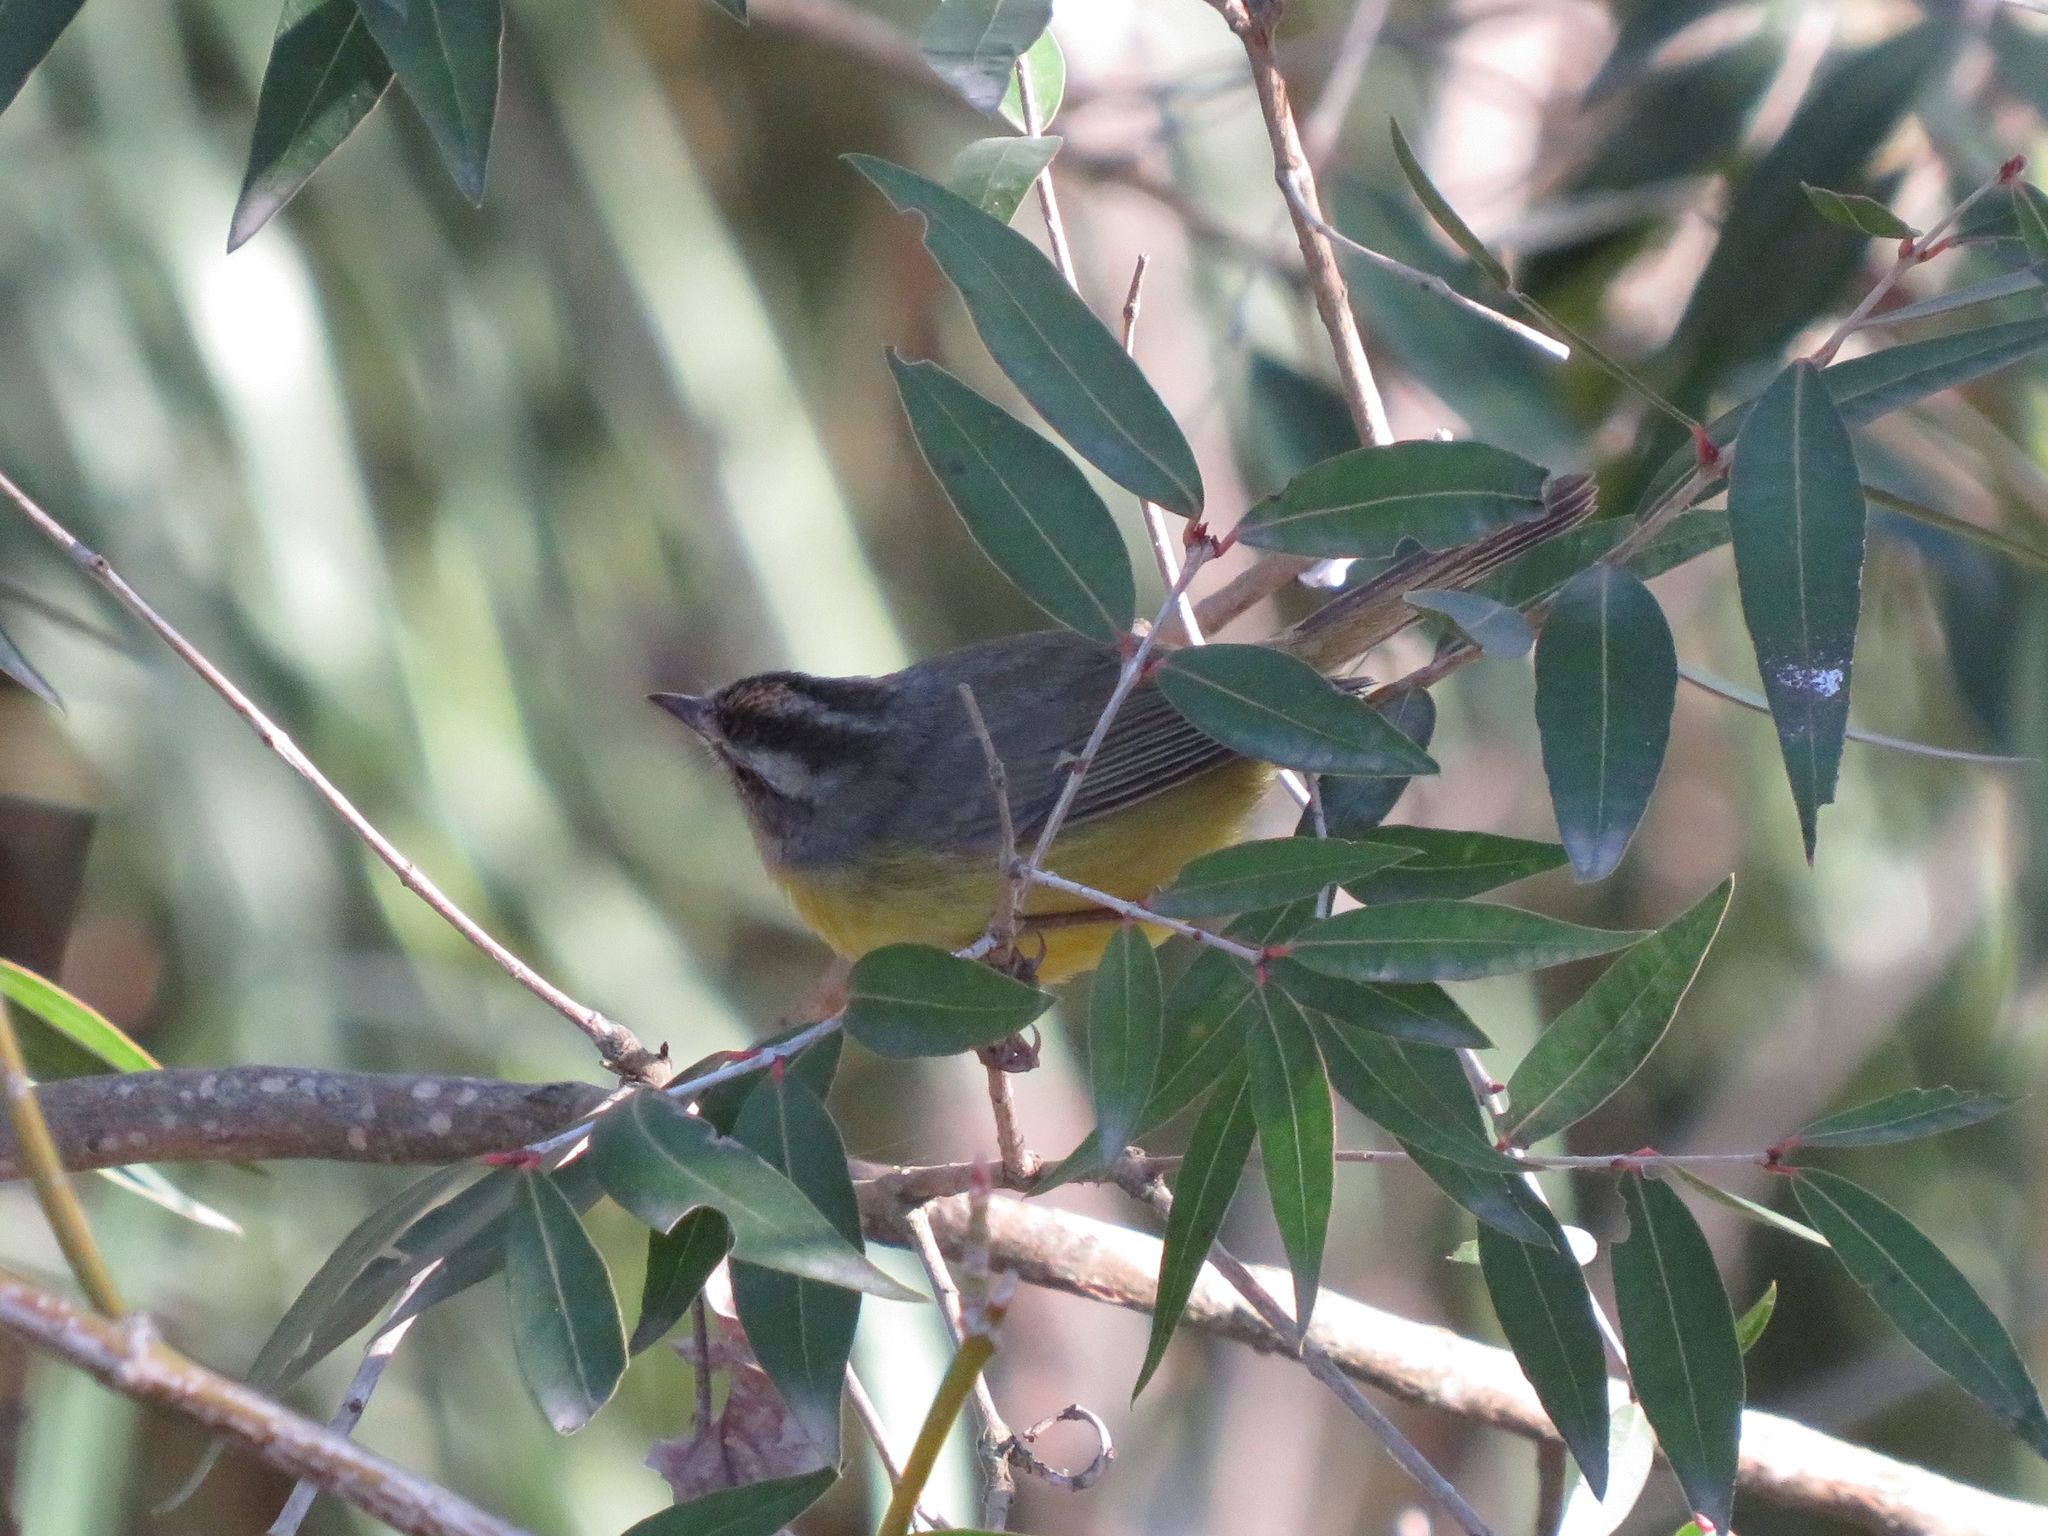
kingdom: Animalia
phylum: Chordata
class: Aves
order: Passeriformes
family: Parulidae
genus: Basileuterus
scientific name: Basileuterus culicivorus
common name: Golden-crowned warbler
